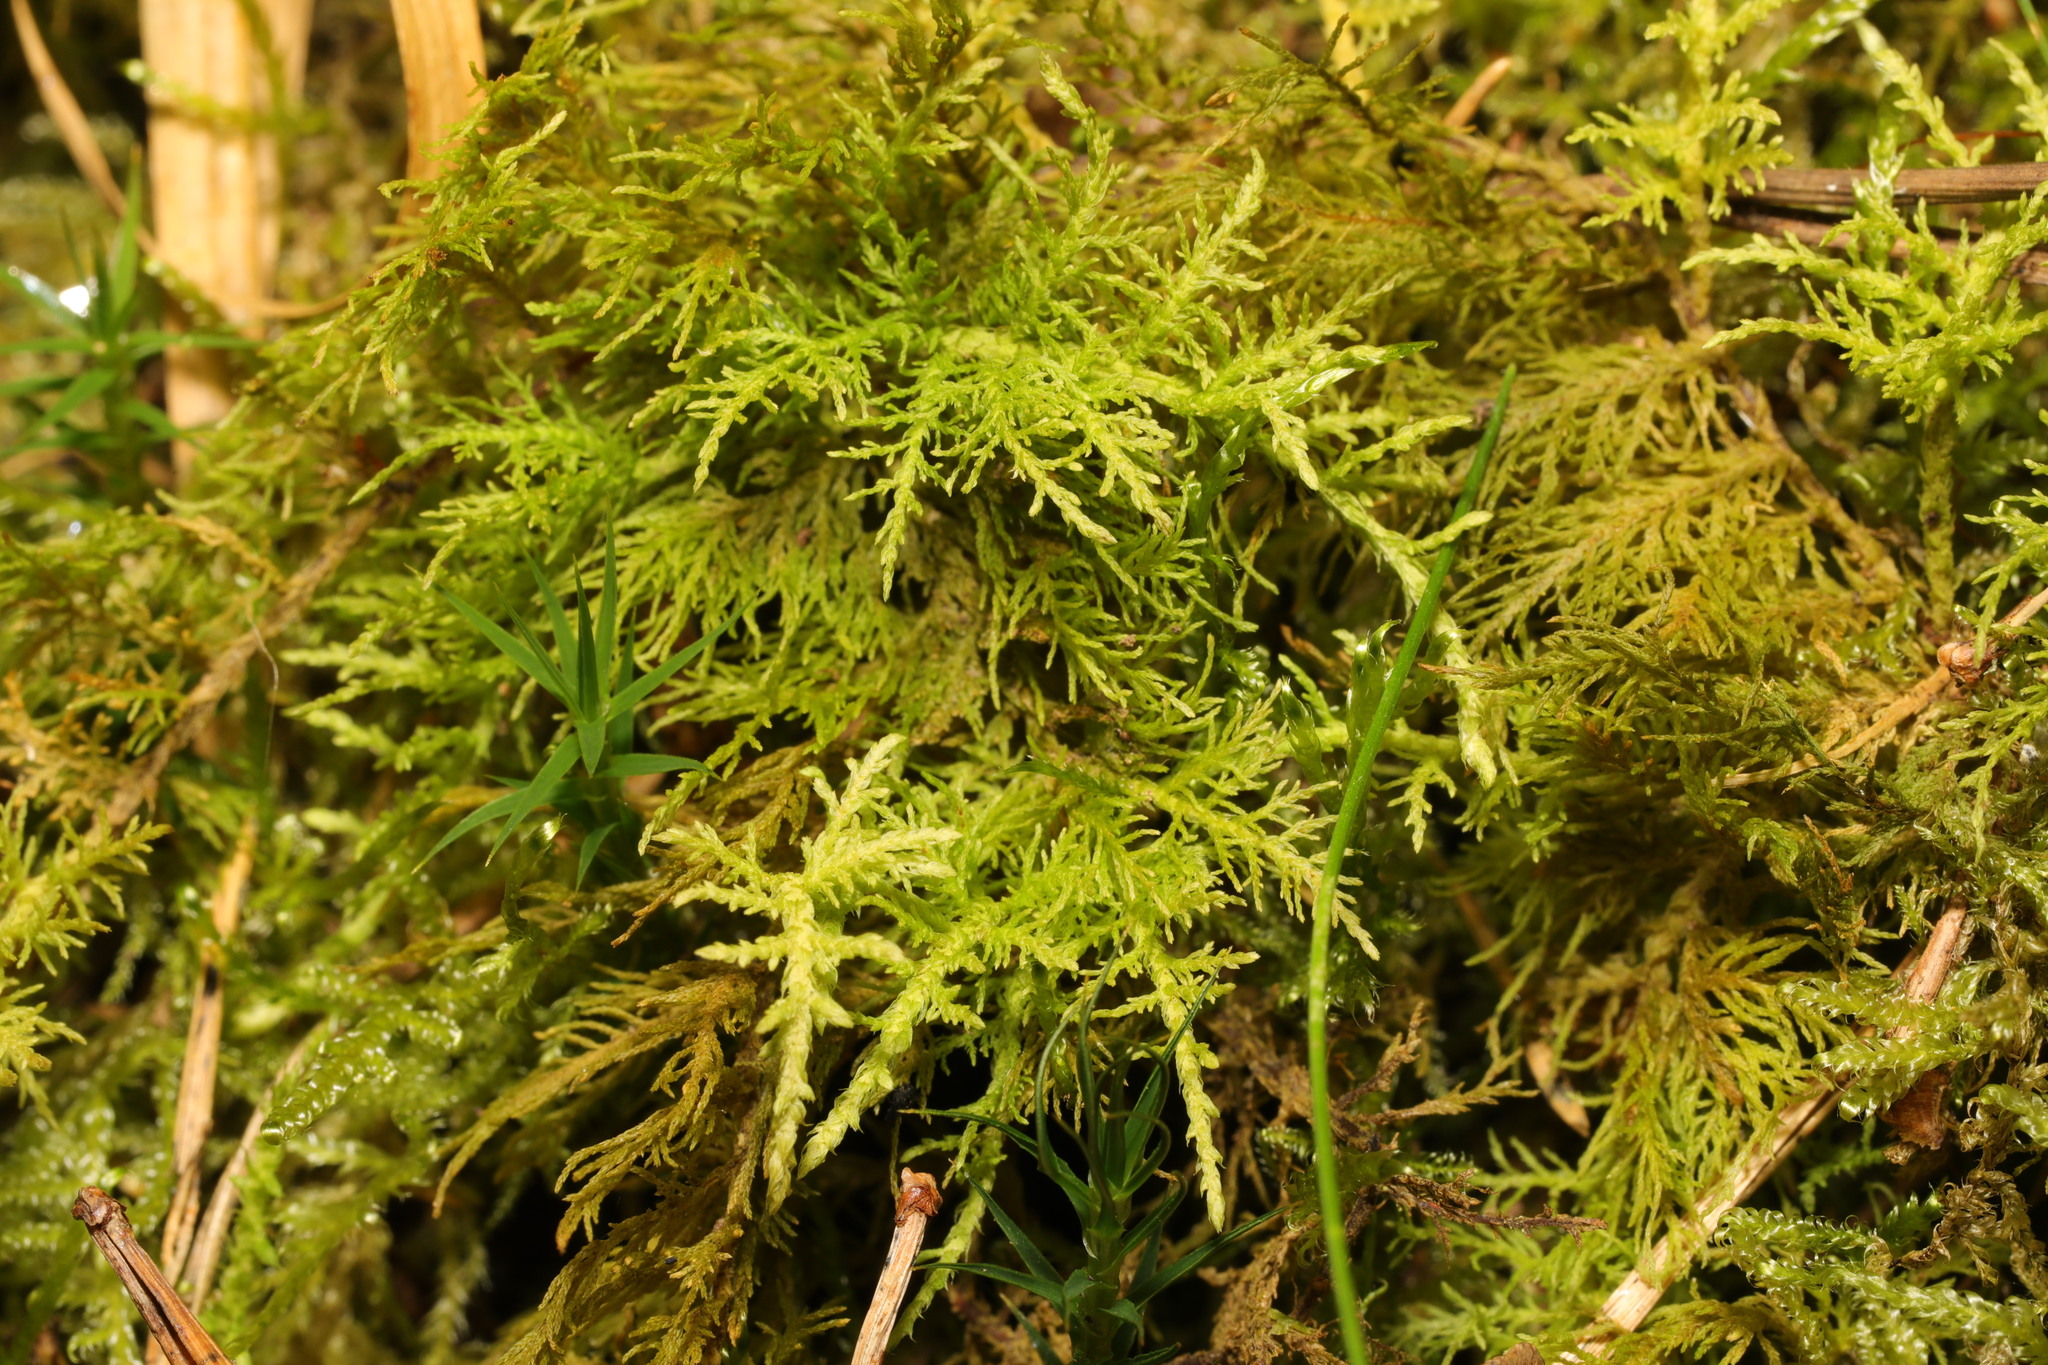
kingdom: Plantae
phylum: Bryophyta
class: Bryopsida
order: Hypnales
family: Thuidiaceae
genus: Thuidium
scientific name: Thuidium tamariscinum
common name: Common tamarisk-moss
